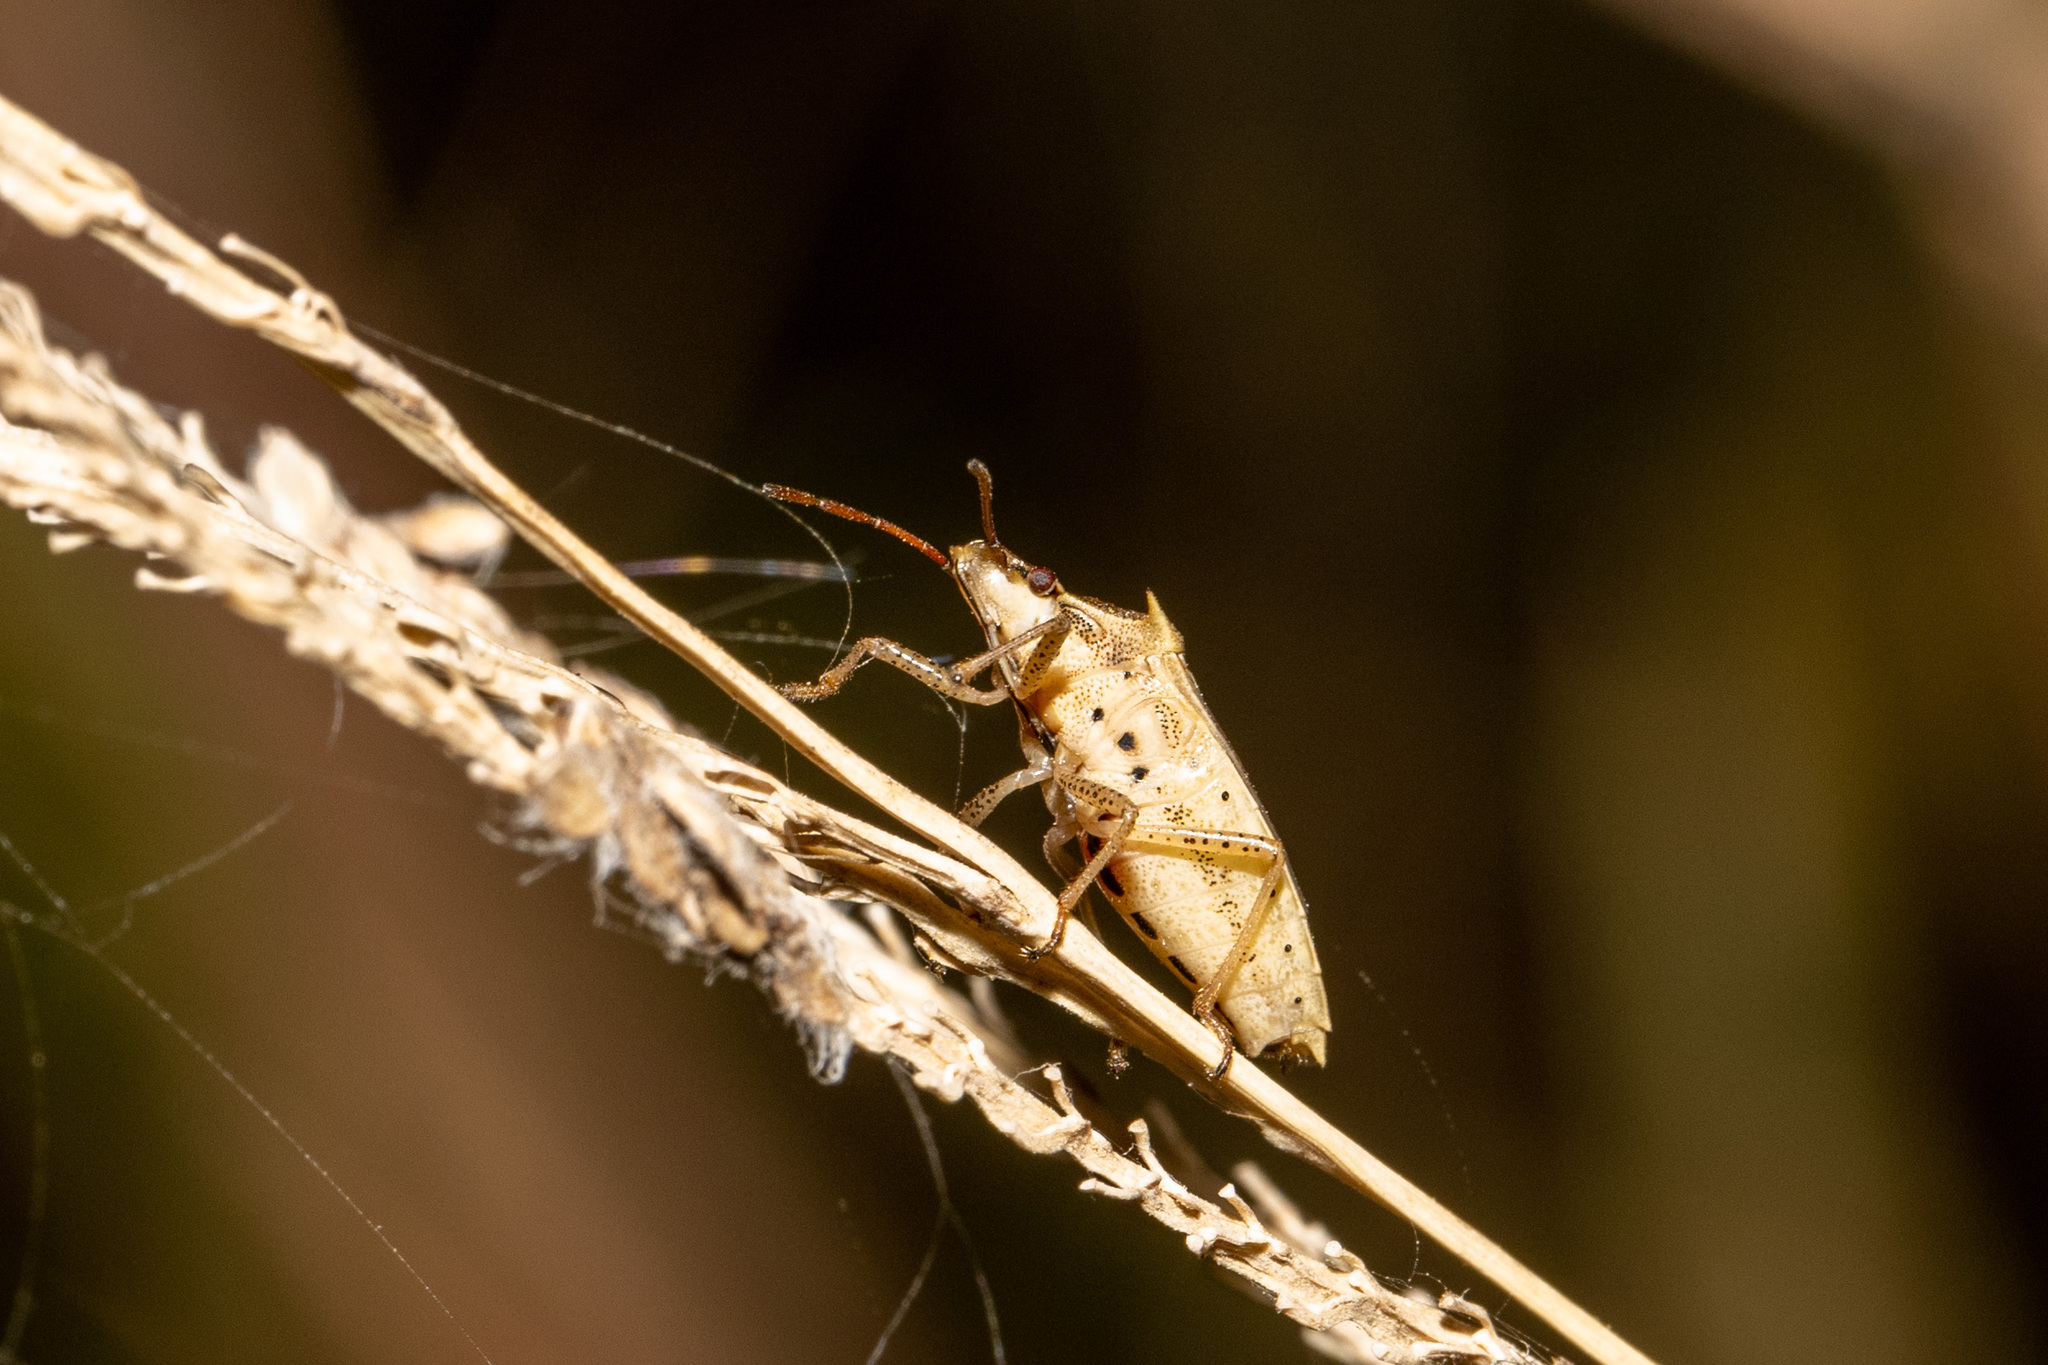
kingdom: Animalia
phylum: Arthropoda
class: Insecta
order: Hemiptera
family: Pentatomidae
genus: Oebalus
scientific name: Oebalus pugnax
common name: Rice stink bug
